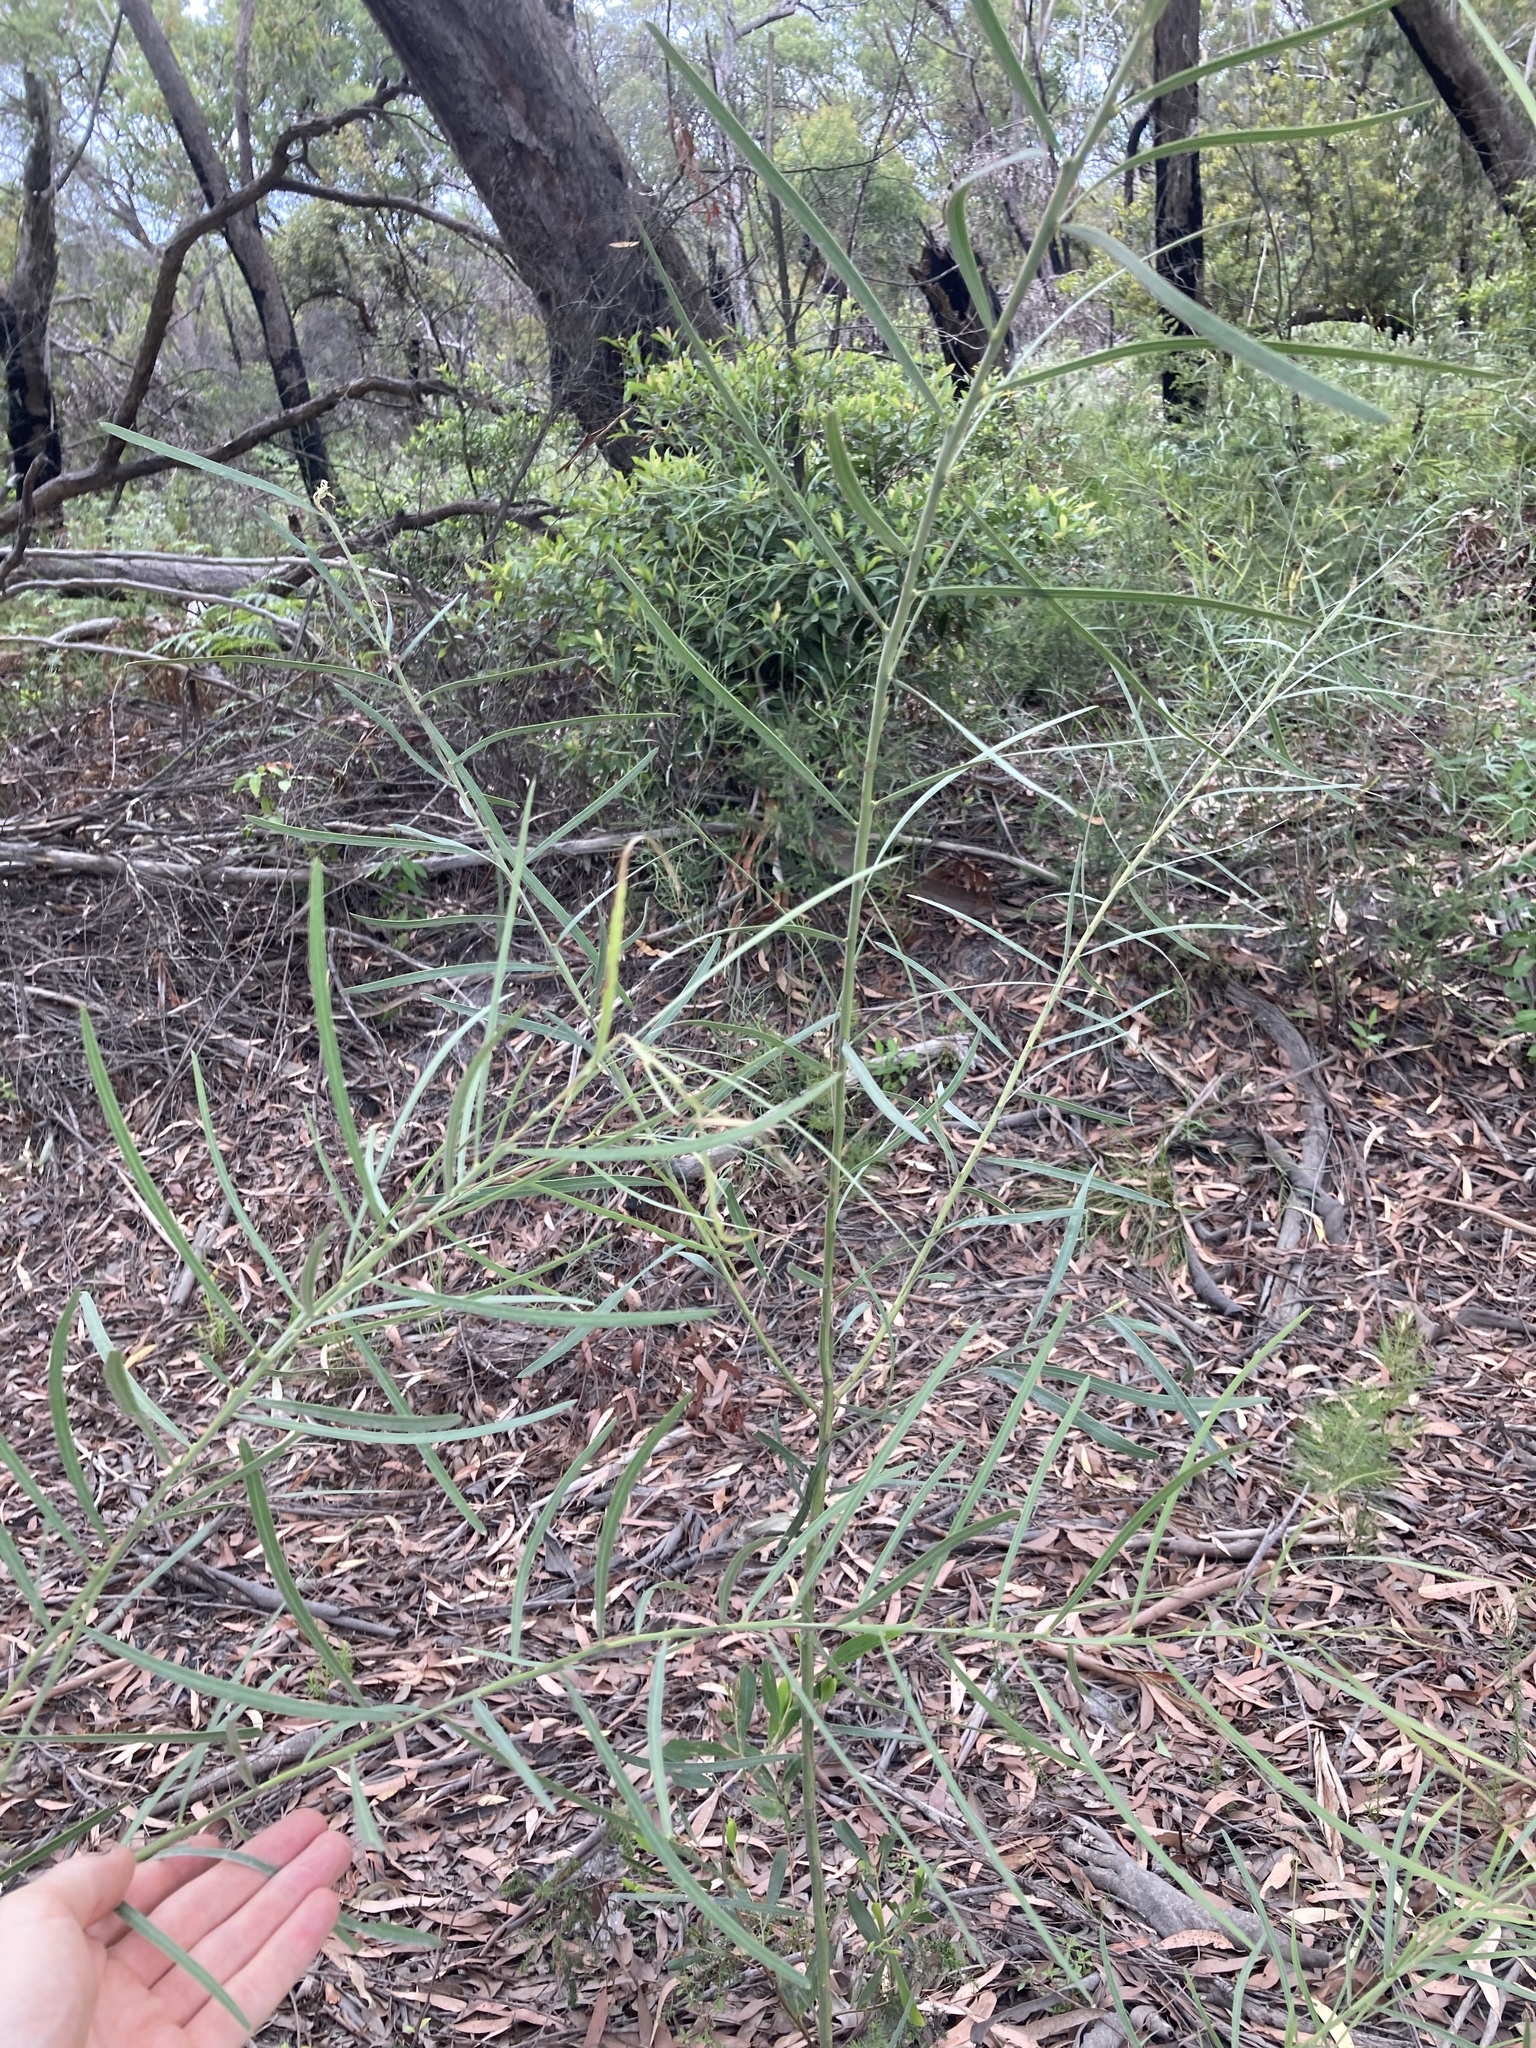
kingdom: Plantae
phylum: Tracheophyta
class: Magnoliopsida
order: Fabales
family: Fabaceae
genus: Acacia
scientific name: Acacia suaveolens
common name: Sweet acacia
